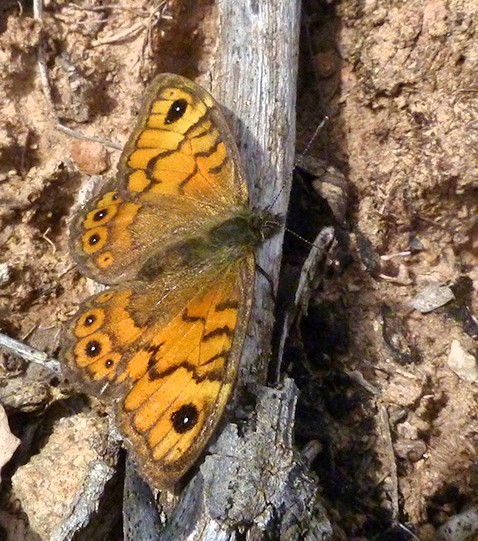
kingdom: Animalia
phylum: Arthropoda
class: Insecta
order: Lepidoptera
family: Nymphalidae
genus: Pararge
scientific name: Pararge Lasiommata megera
